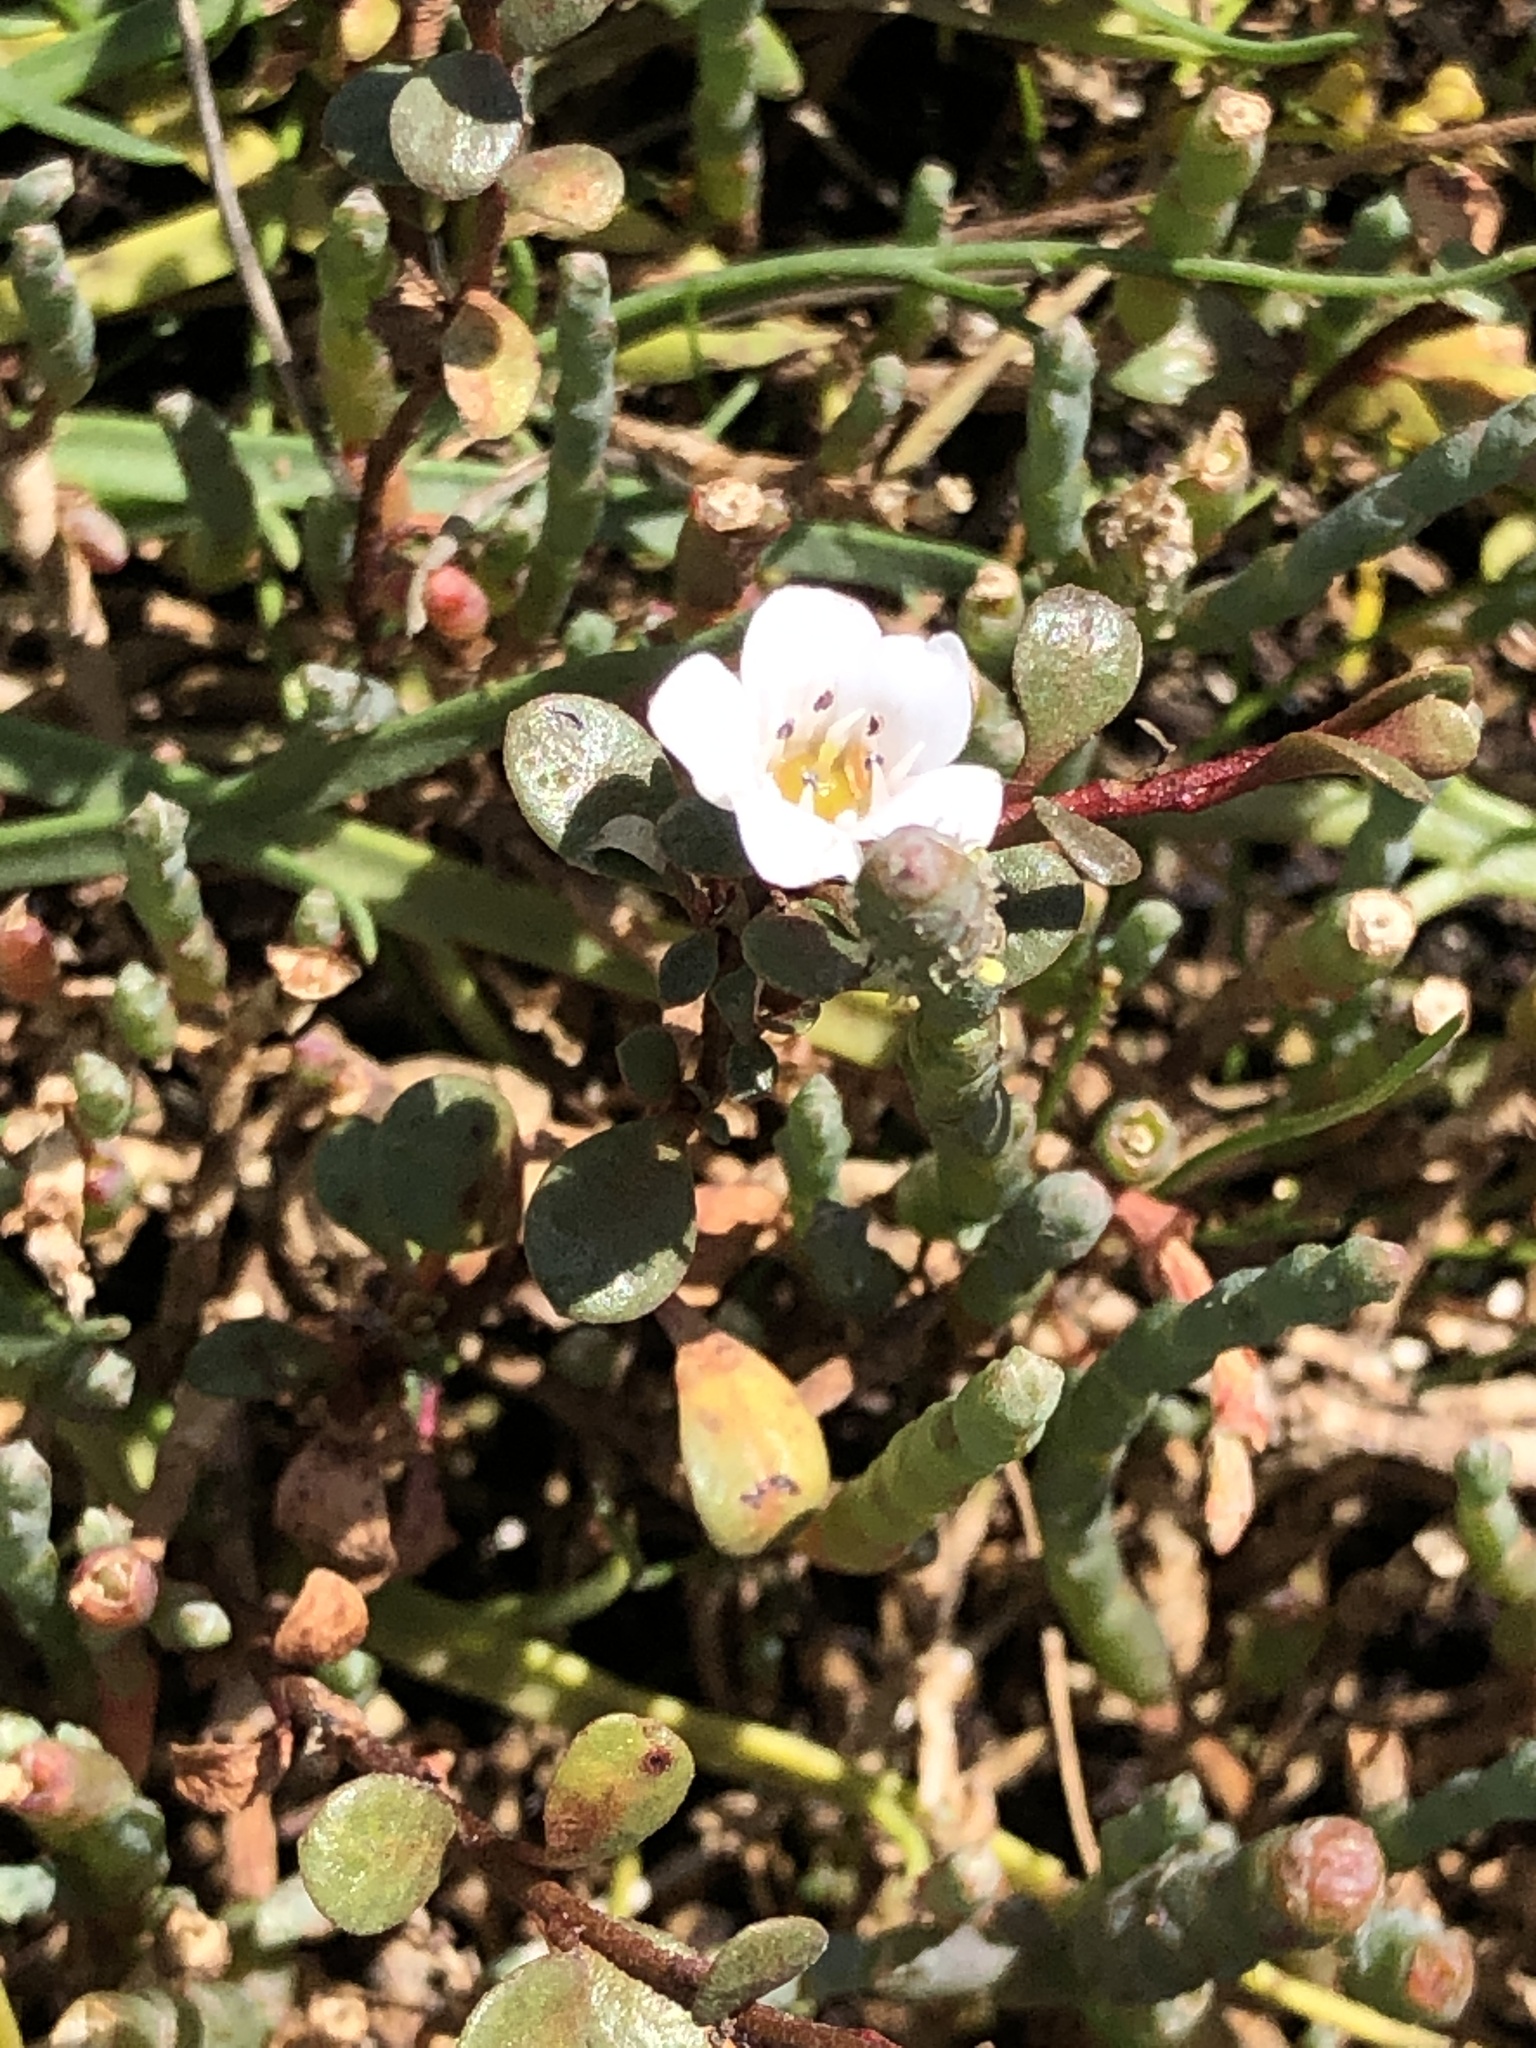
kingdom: Plantae
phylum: Tracheophyta
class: Magnoliopsida
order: Ericales
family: Primulaceae
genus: Samolus
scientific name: Samolus repens
